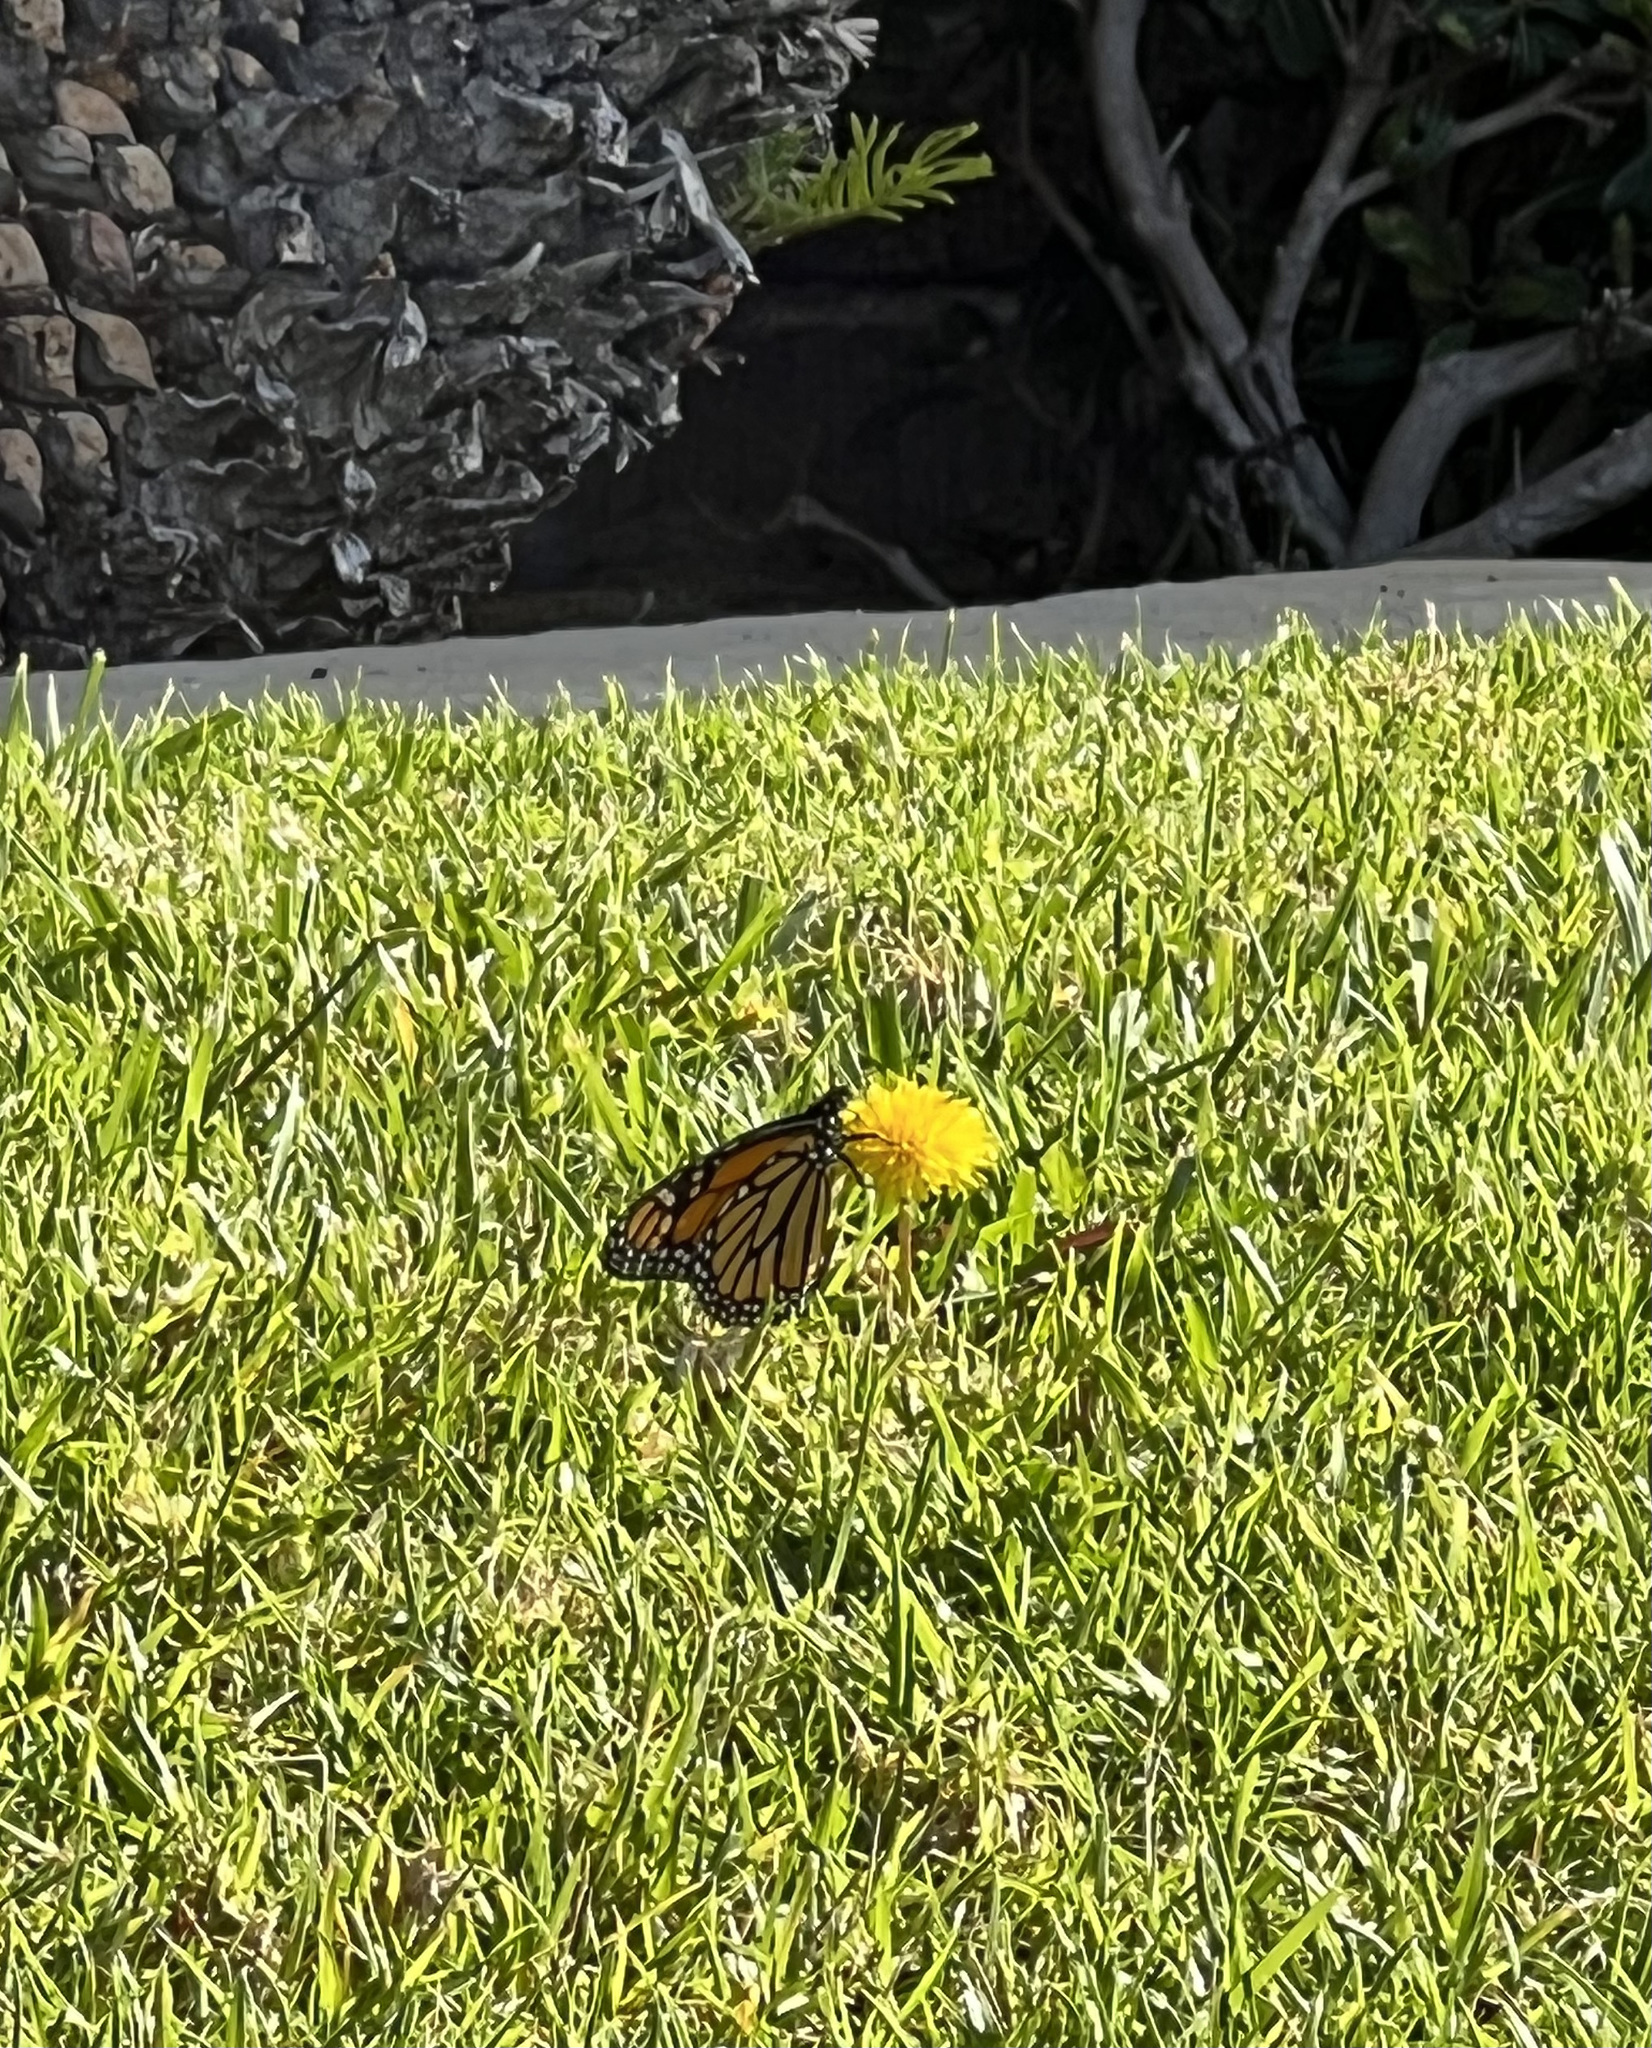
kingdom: Animalia
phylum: Arthropoda
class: Insecta
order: Lepidoptera
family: Nymphalidae
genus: Danaus
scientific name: Danaus plexippus
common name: Monarch
